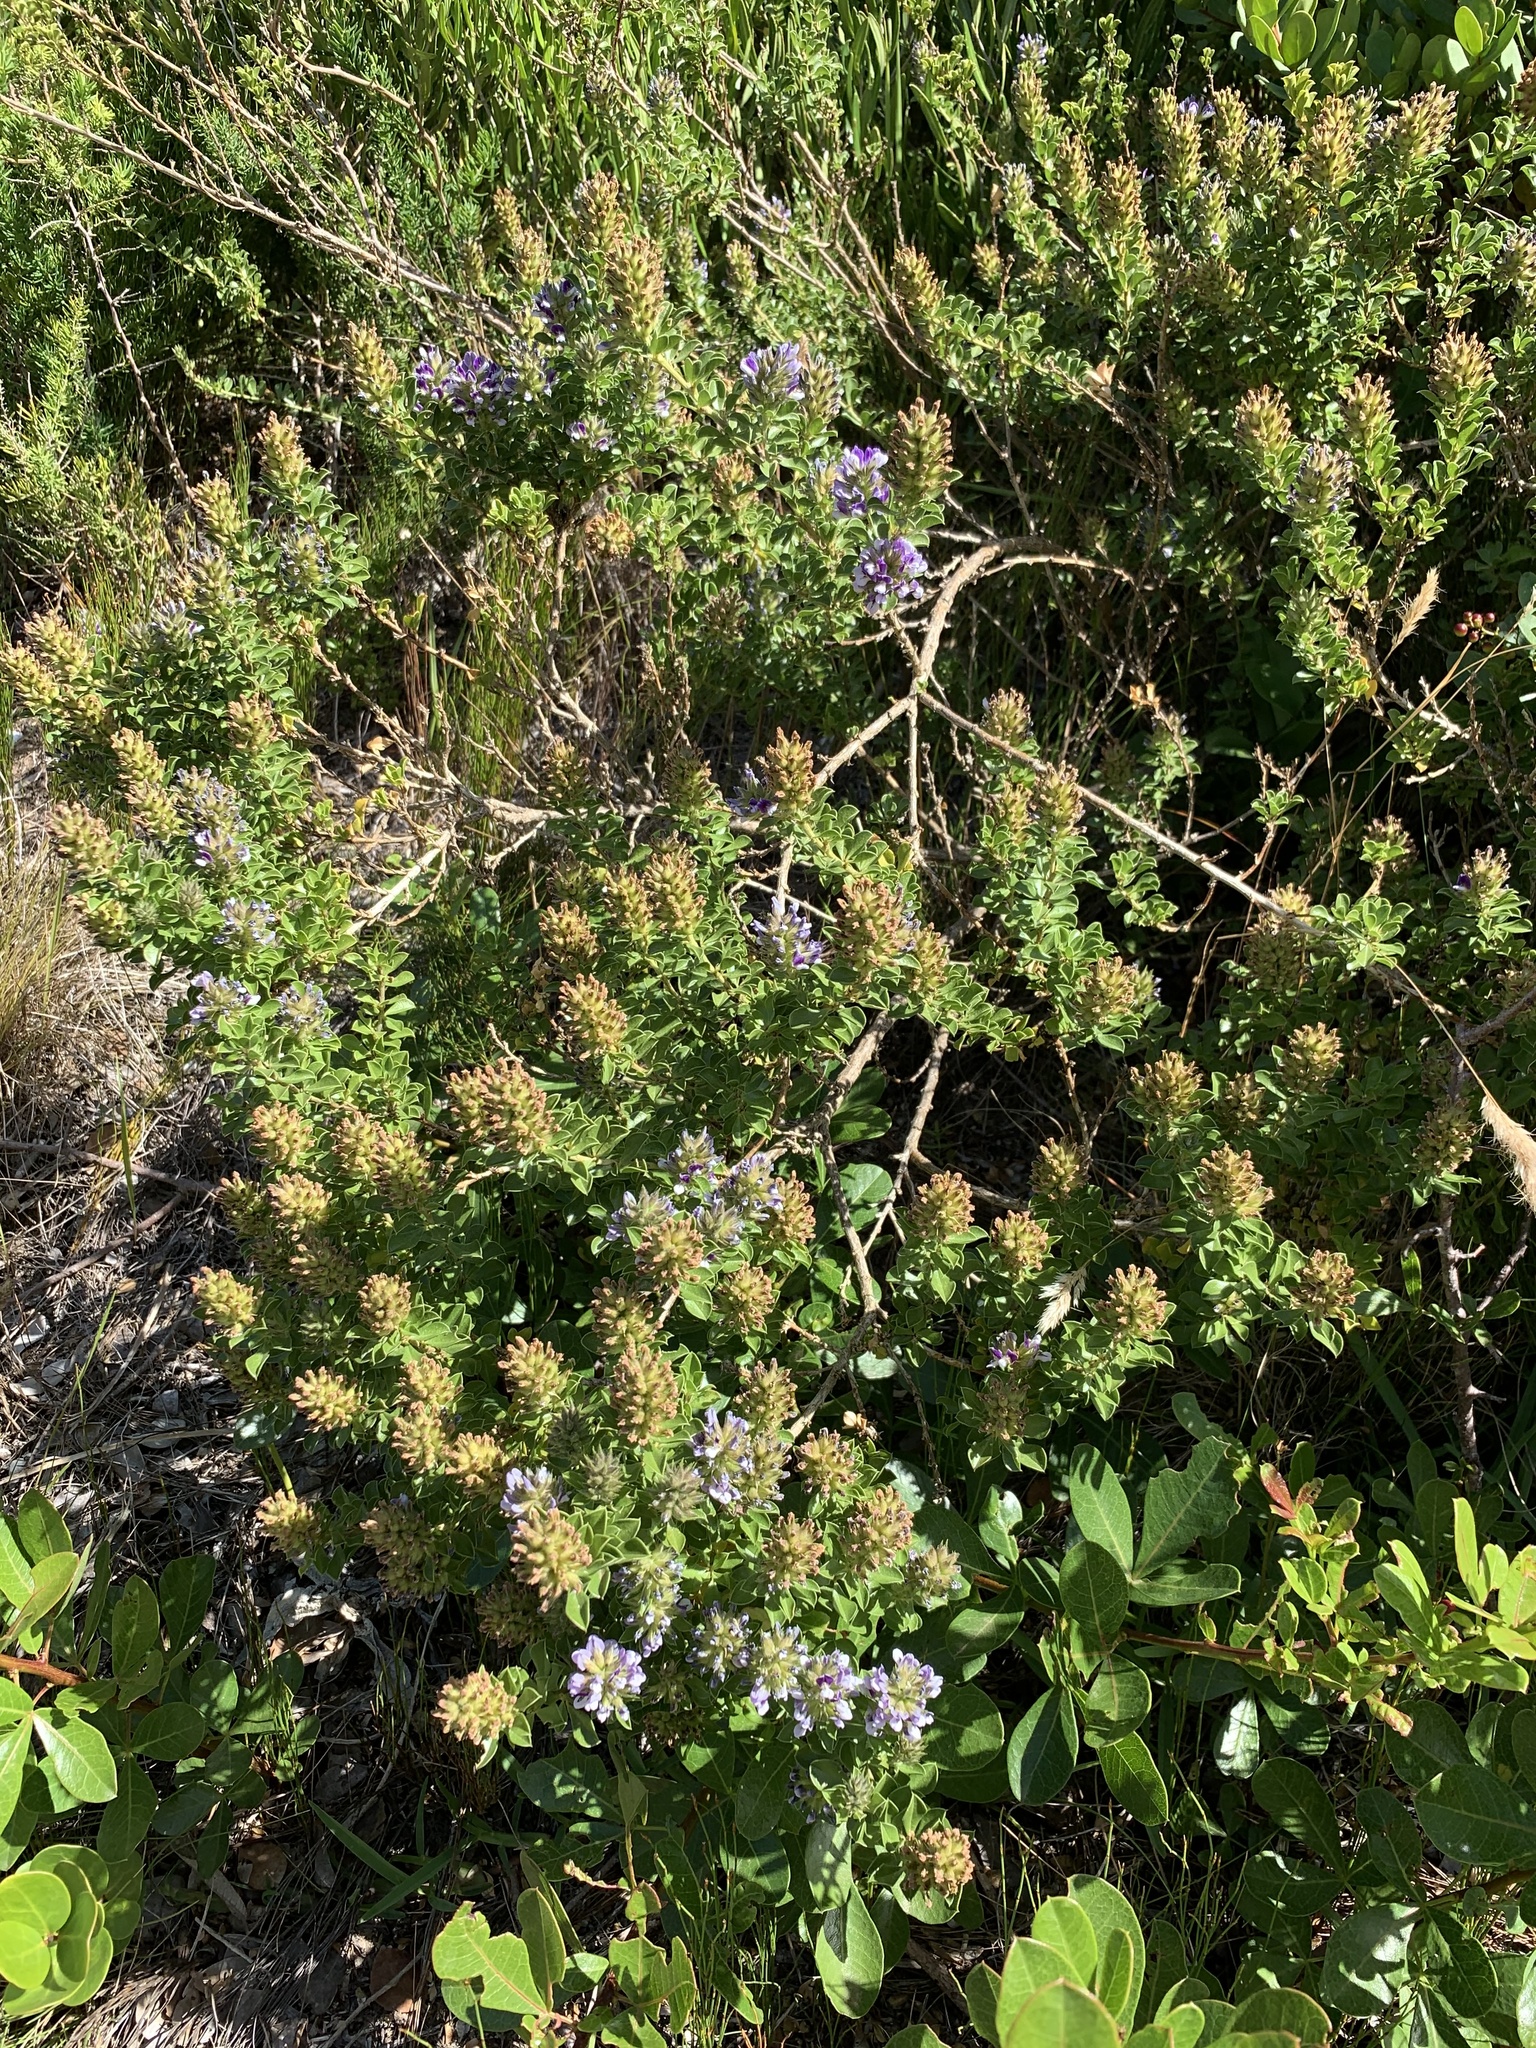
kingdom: Plantae
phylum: Tracheophyta
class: Magnoliopsida
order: Fabales
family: Fabaceae
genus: Psoralea
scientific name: Psoralea bracteolata
